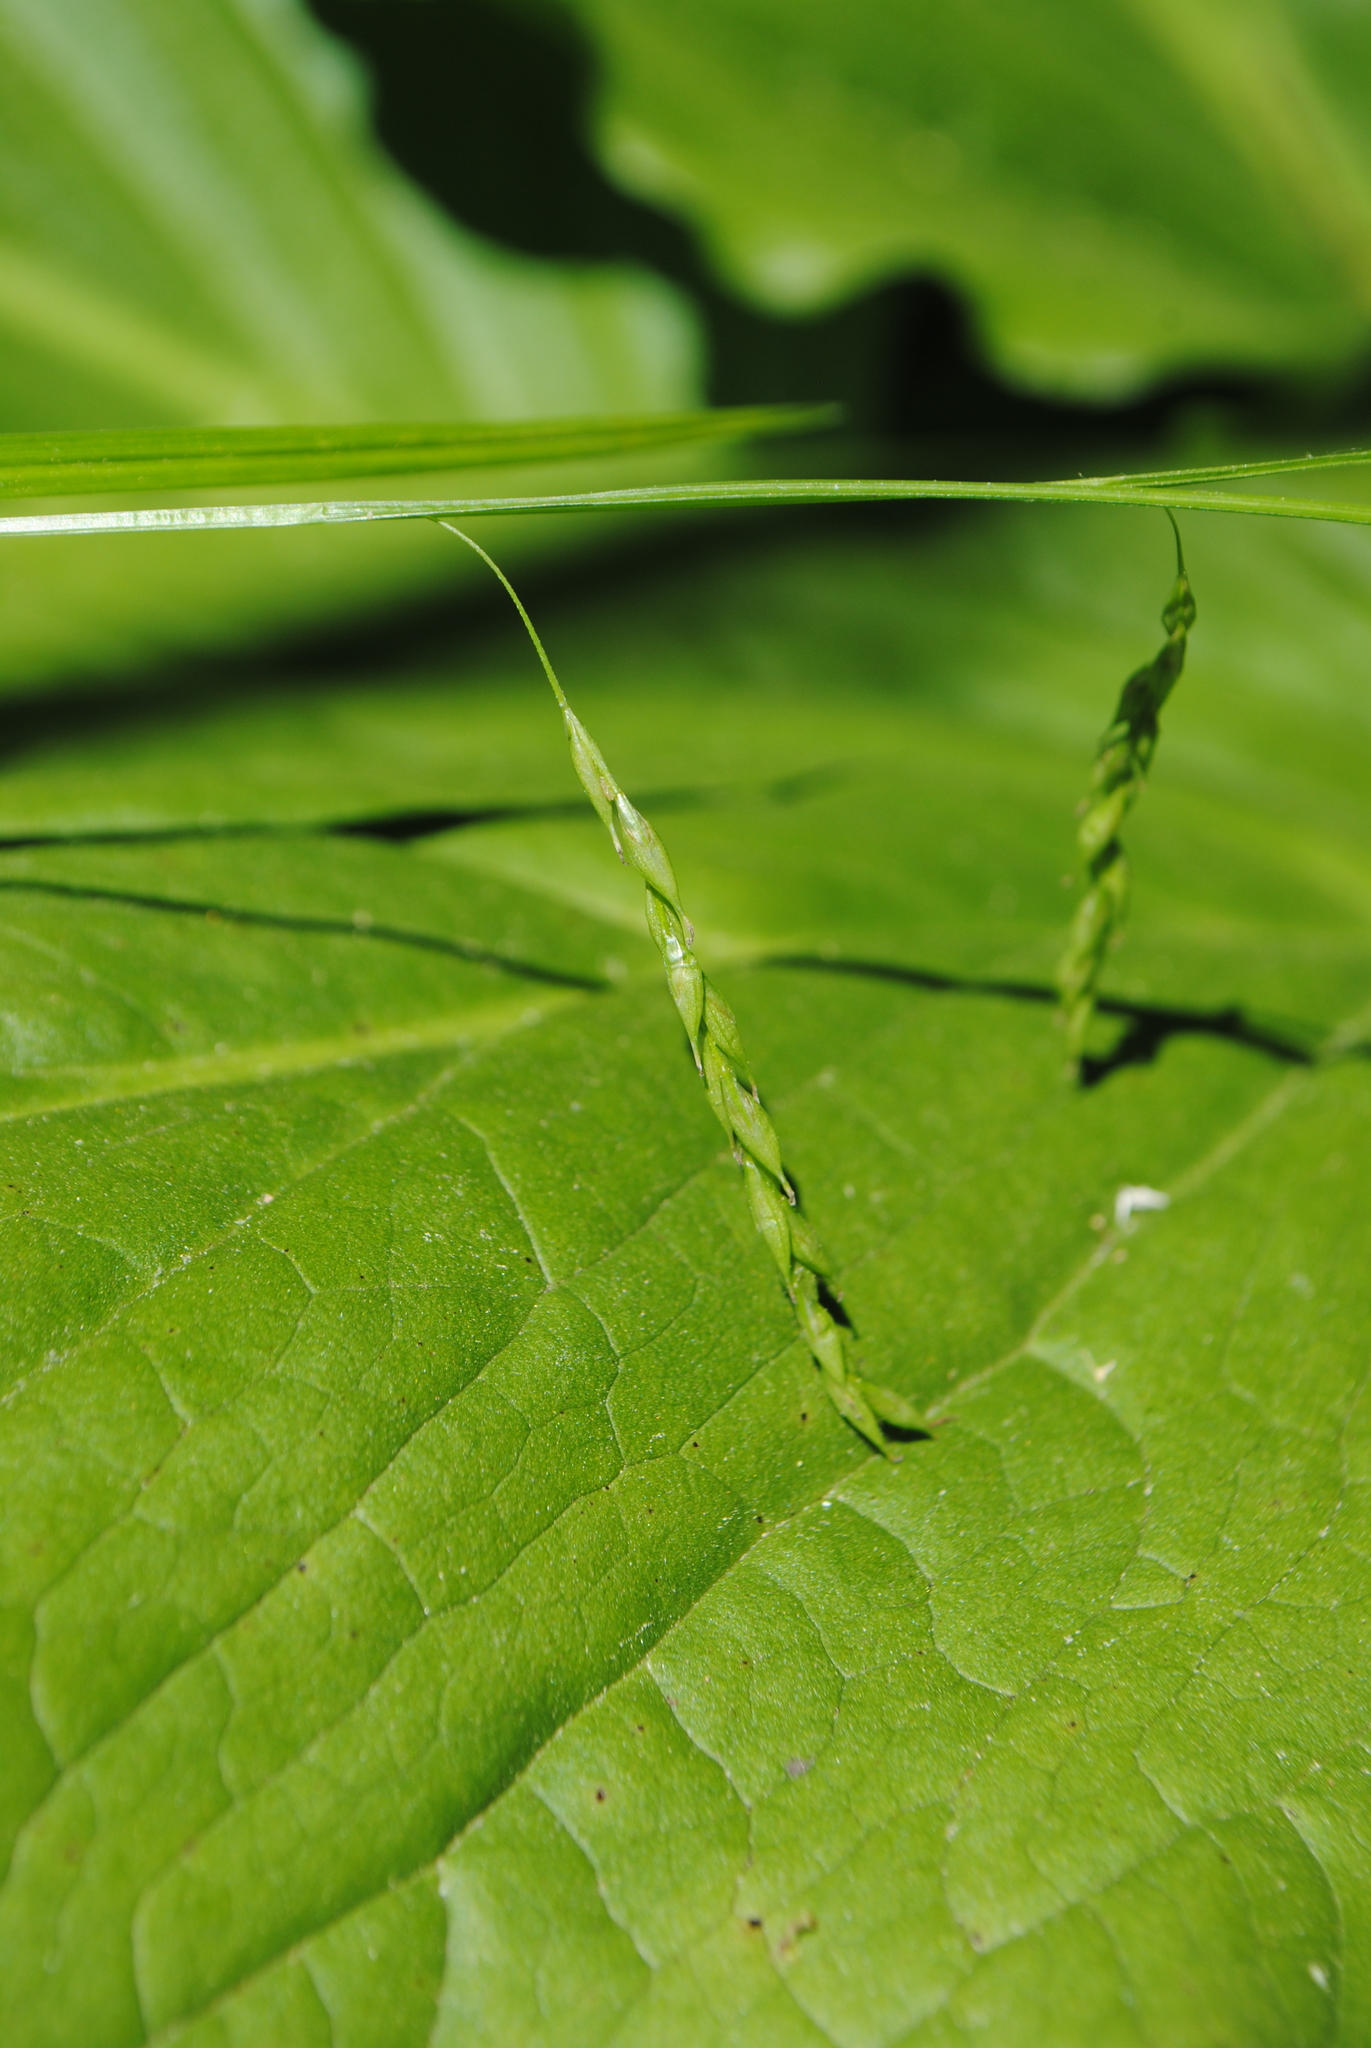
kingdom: Plantae
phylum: Tracheophyta
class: Liliopsida
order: Poales
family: Cyperaceae
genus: Carex
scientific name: Carex debilis
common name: White-edge sedge
